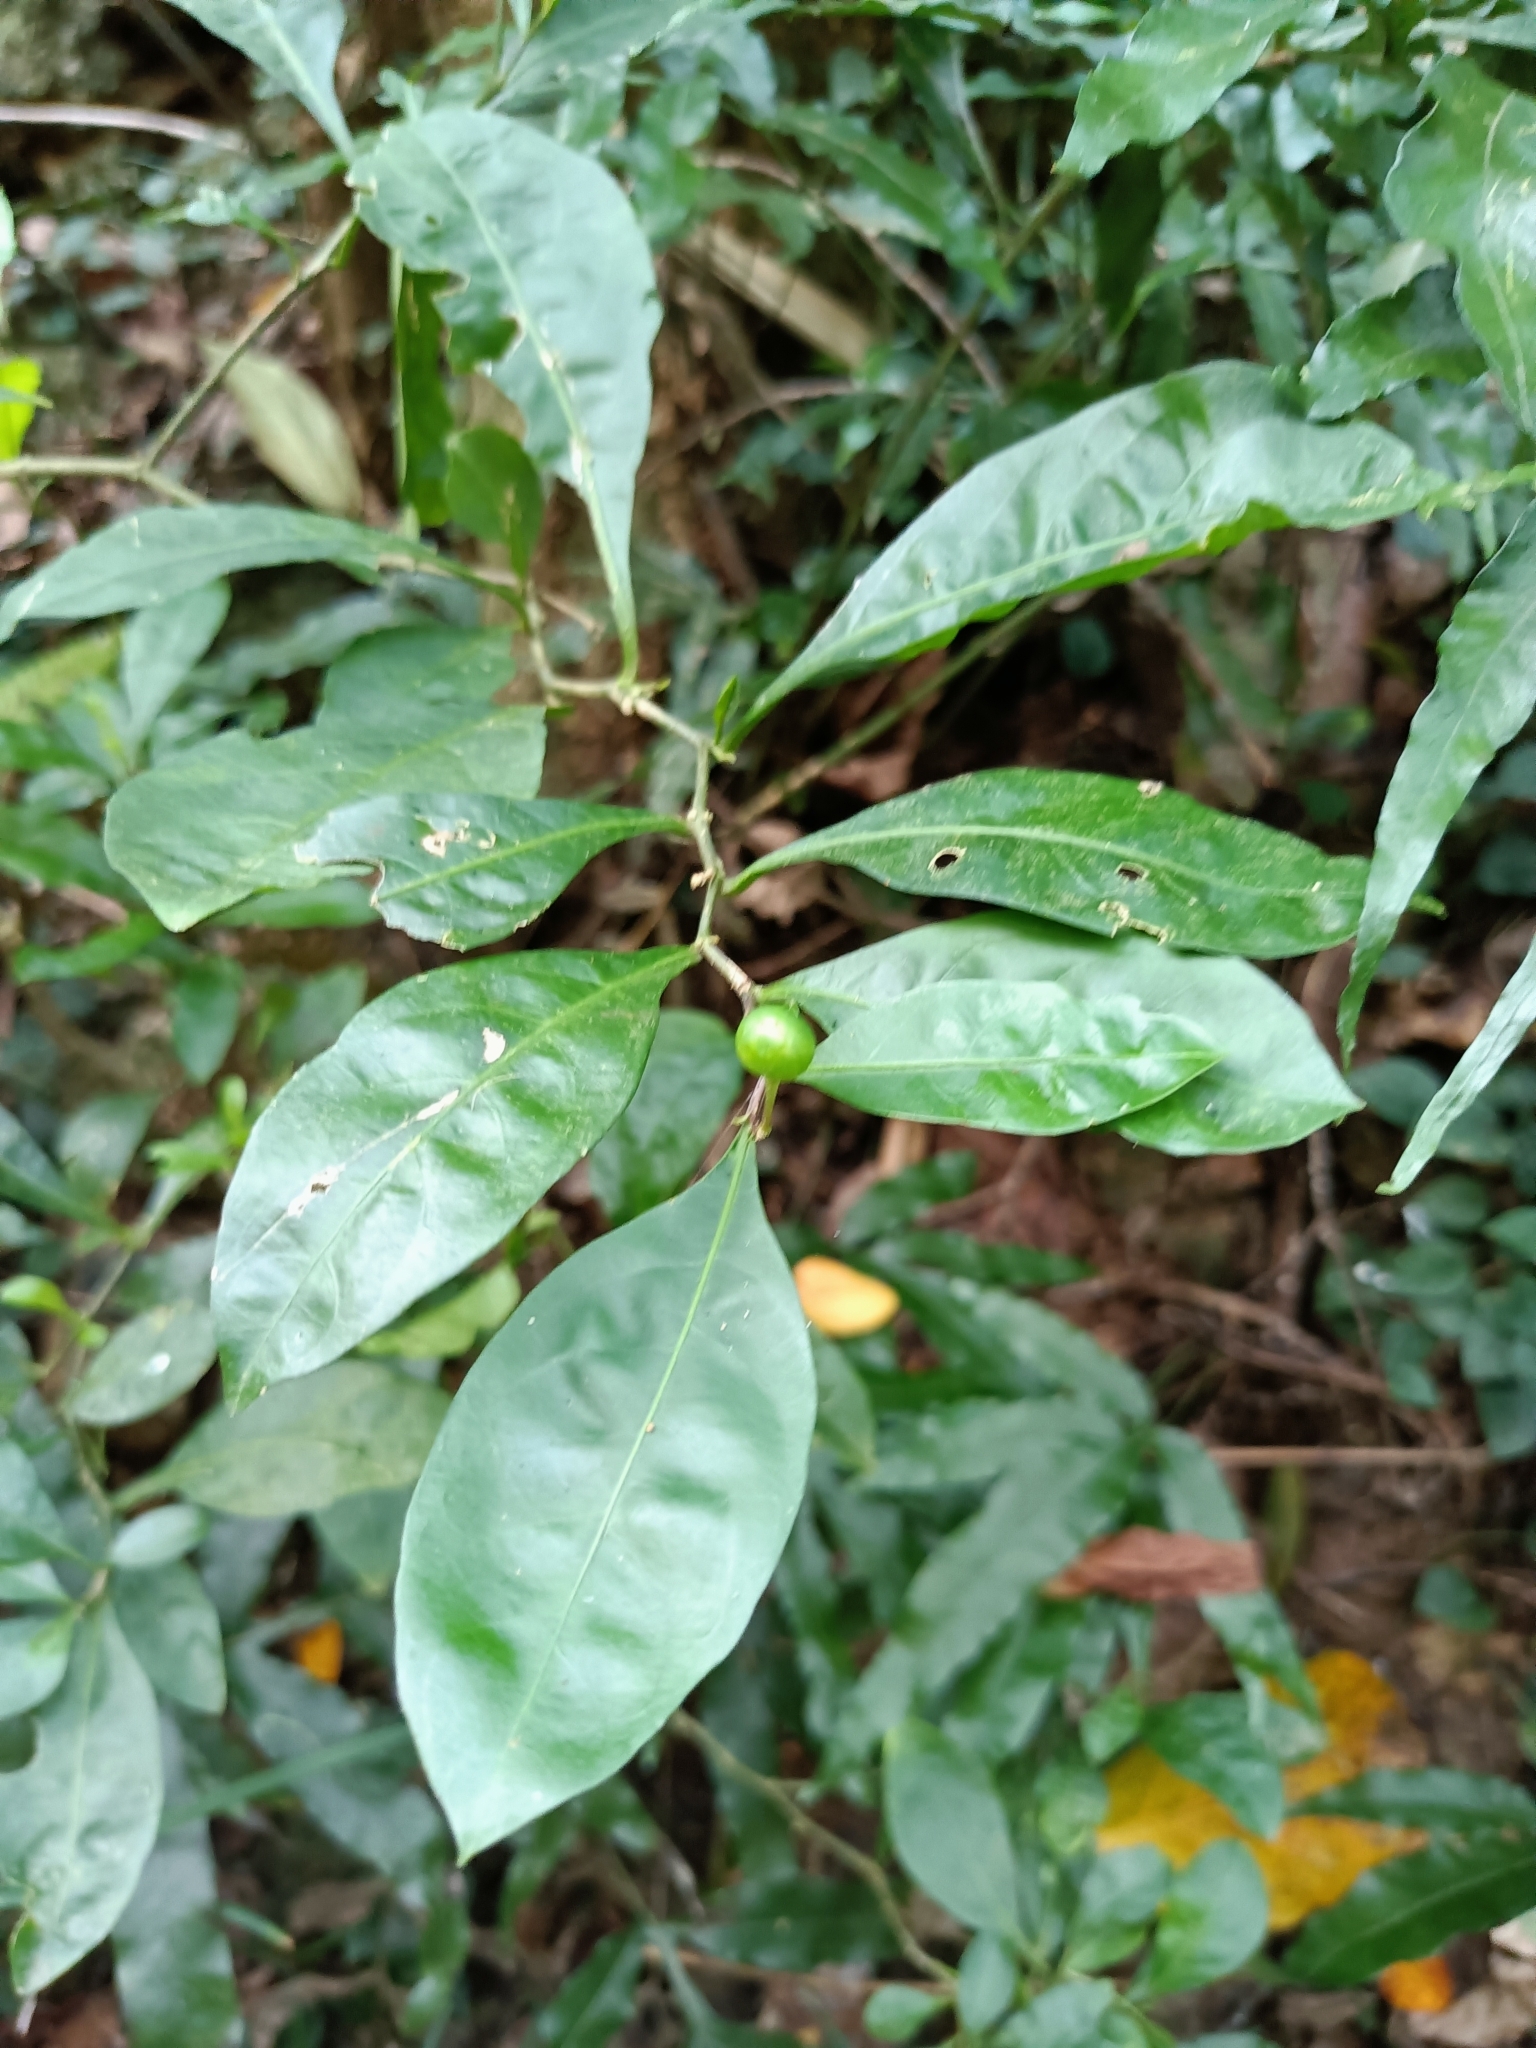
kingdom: Plantae
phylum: Tracheophyta
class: Magnoliopsida
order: Solanales
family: Solanaceae
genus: Solanum
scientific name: Solanum diphyllum
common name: Twoleaf nightshade
